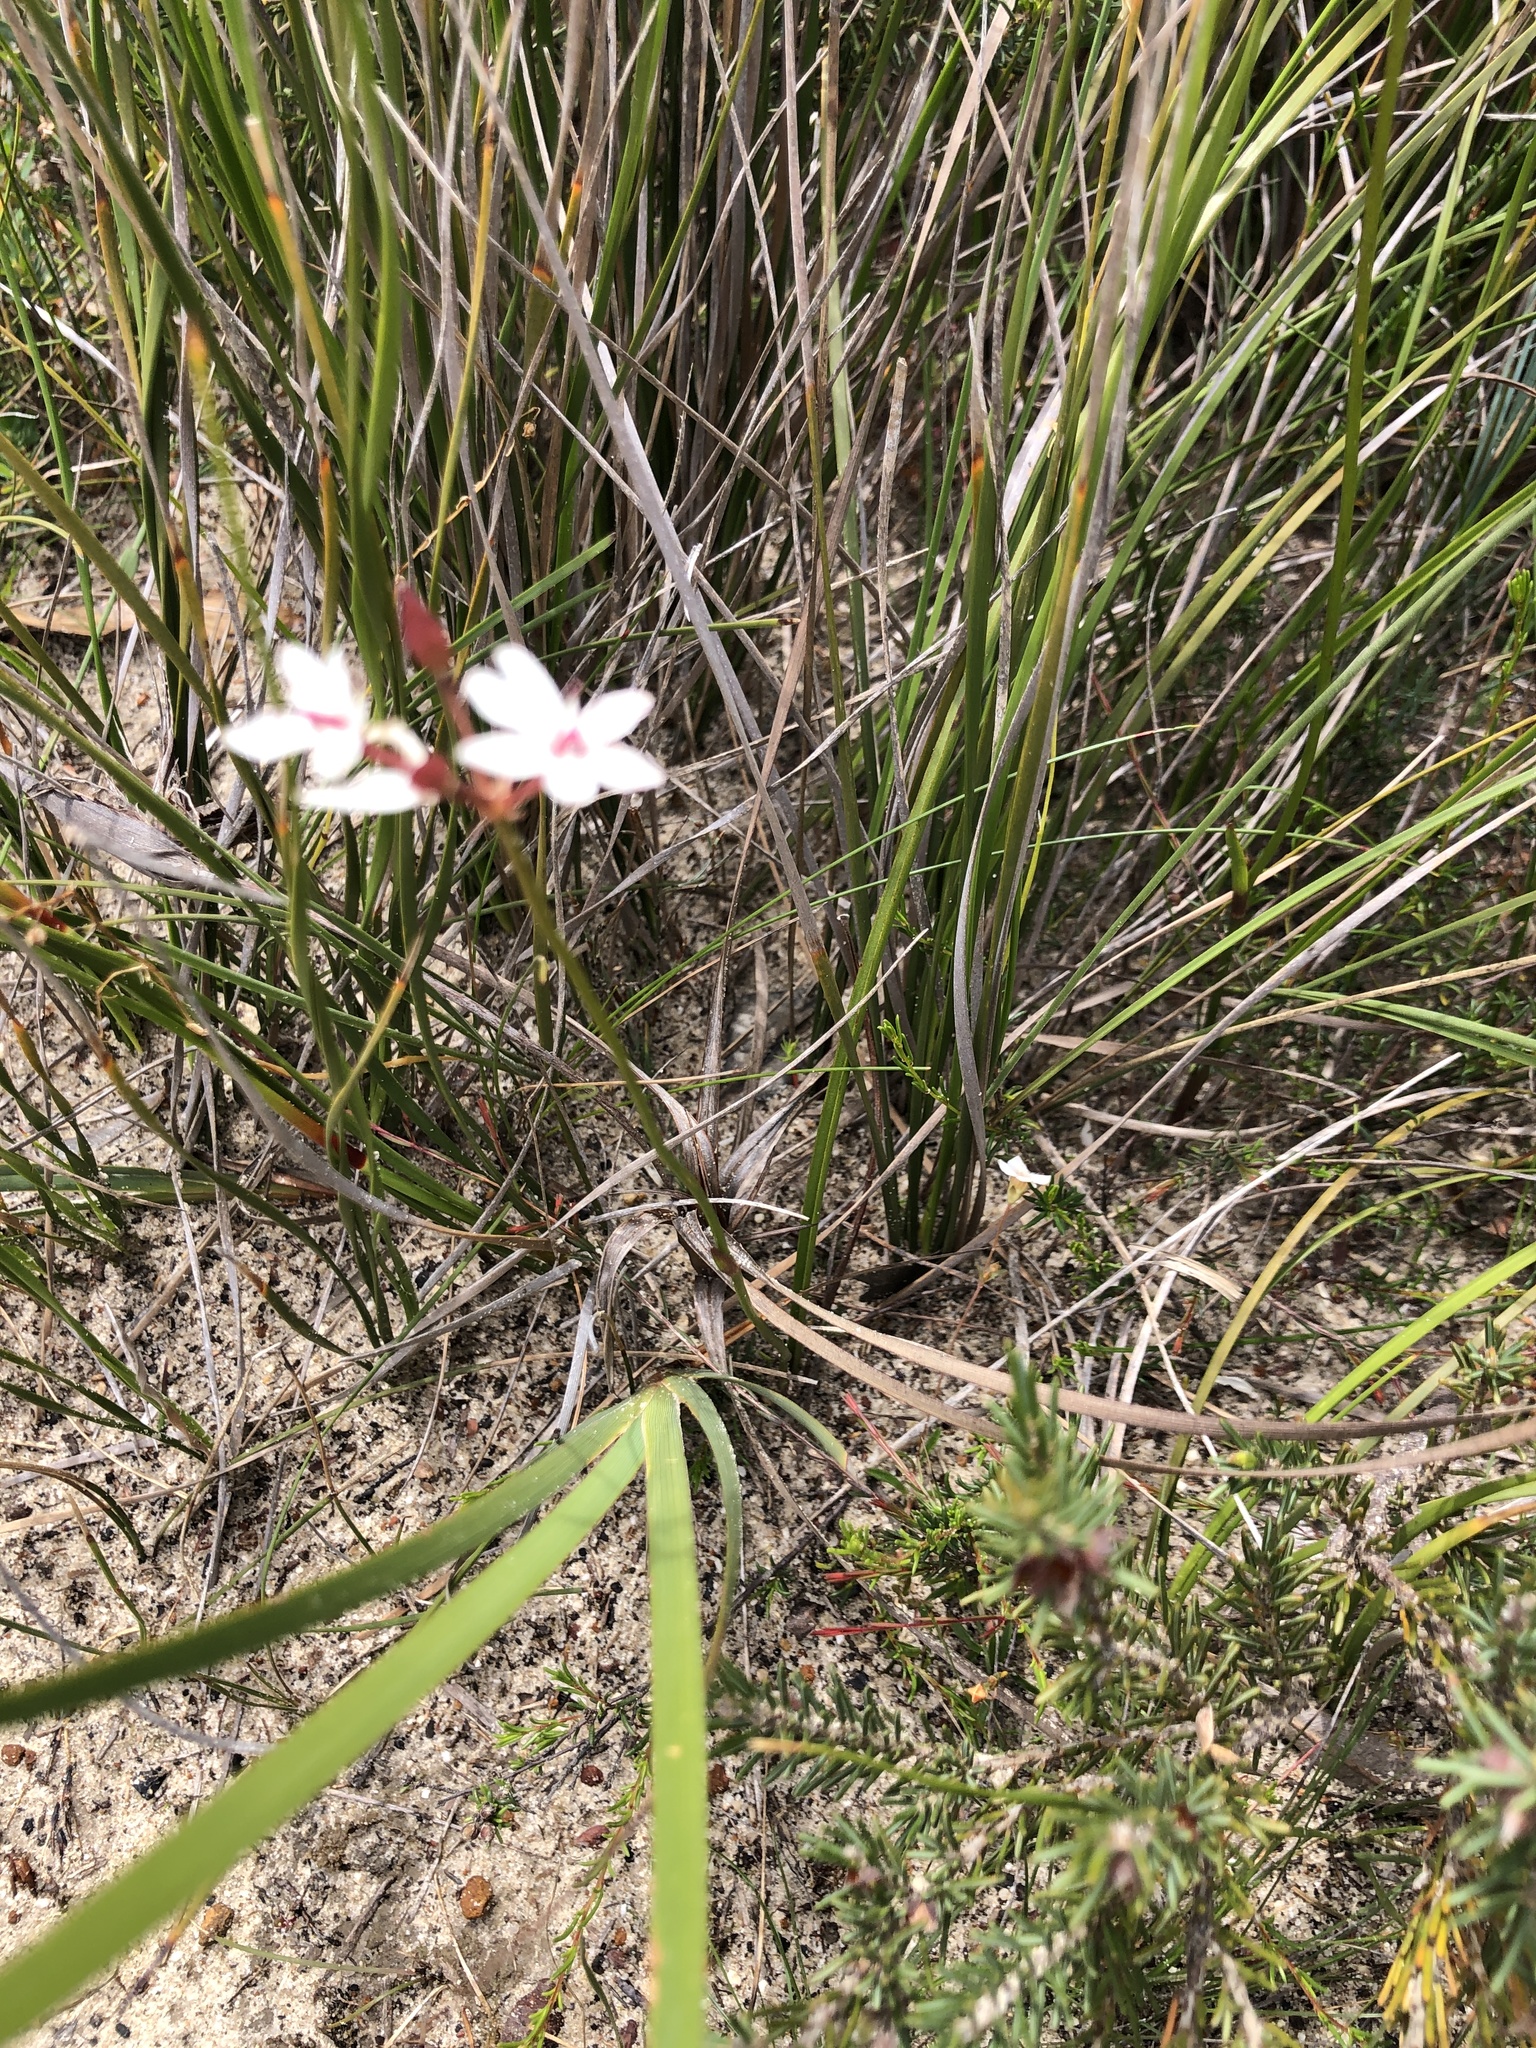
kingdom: Plantae
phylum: Tracheophyta
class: Liliopsida
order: Liliales
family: Colchicaceae
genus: Burchardia
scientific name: Burchardia umbellata
